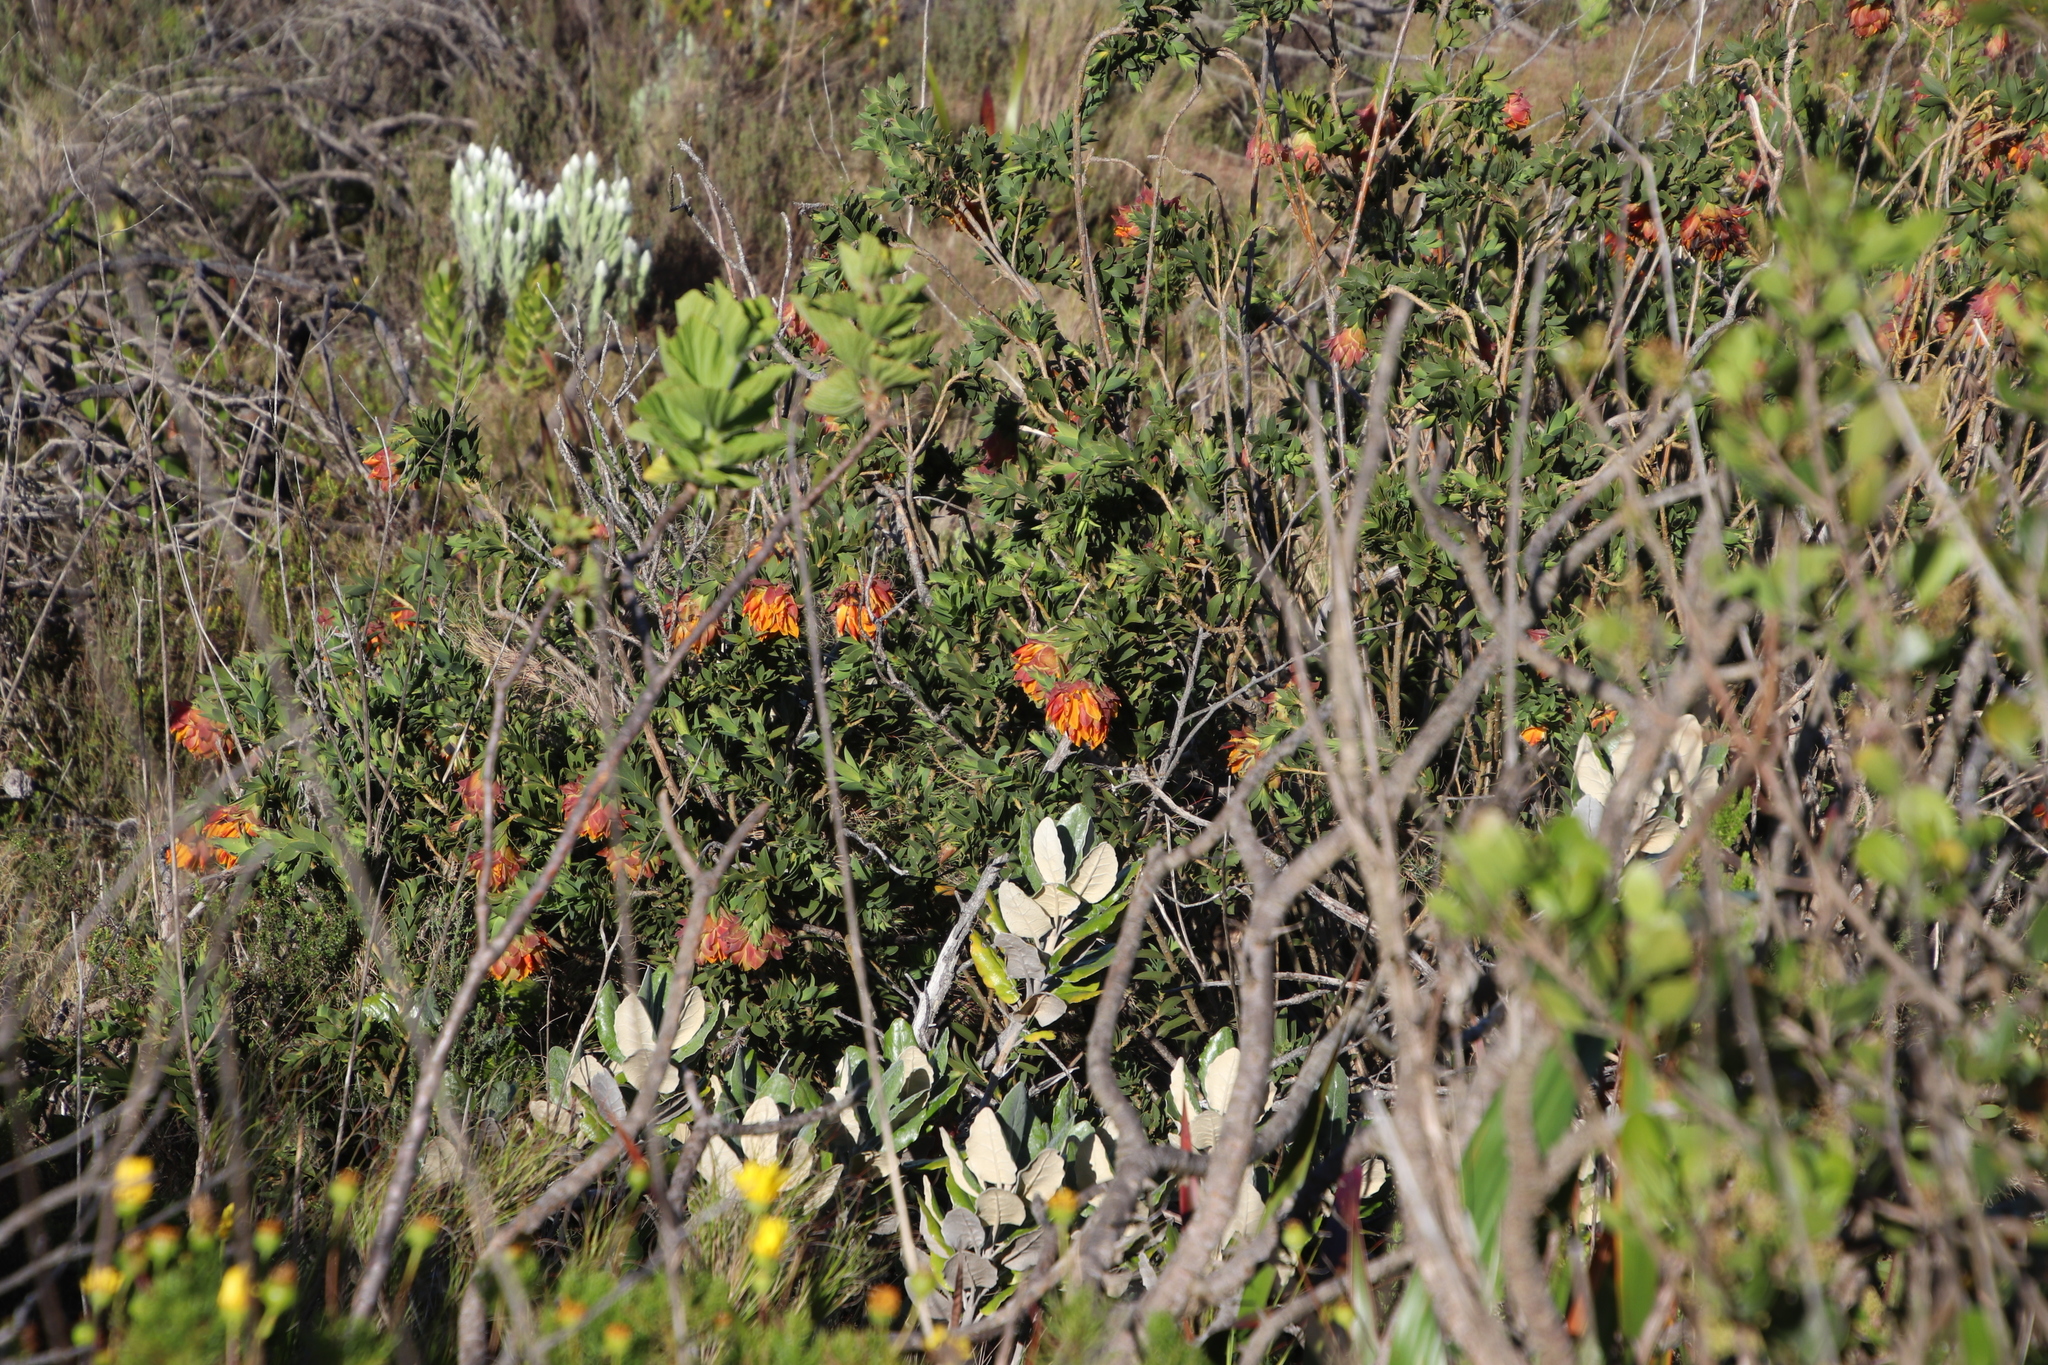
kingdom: Plantae
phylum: Tracheophyta
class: Magnoliopsida
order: Fabales
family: Fabaceae
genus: Liparia
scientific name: Liparia splendens
